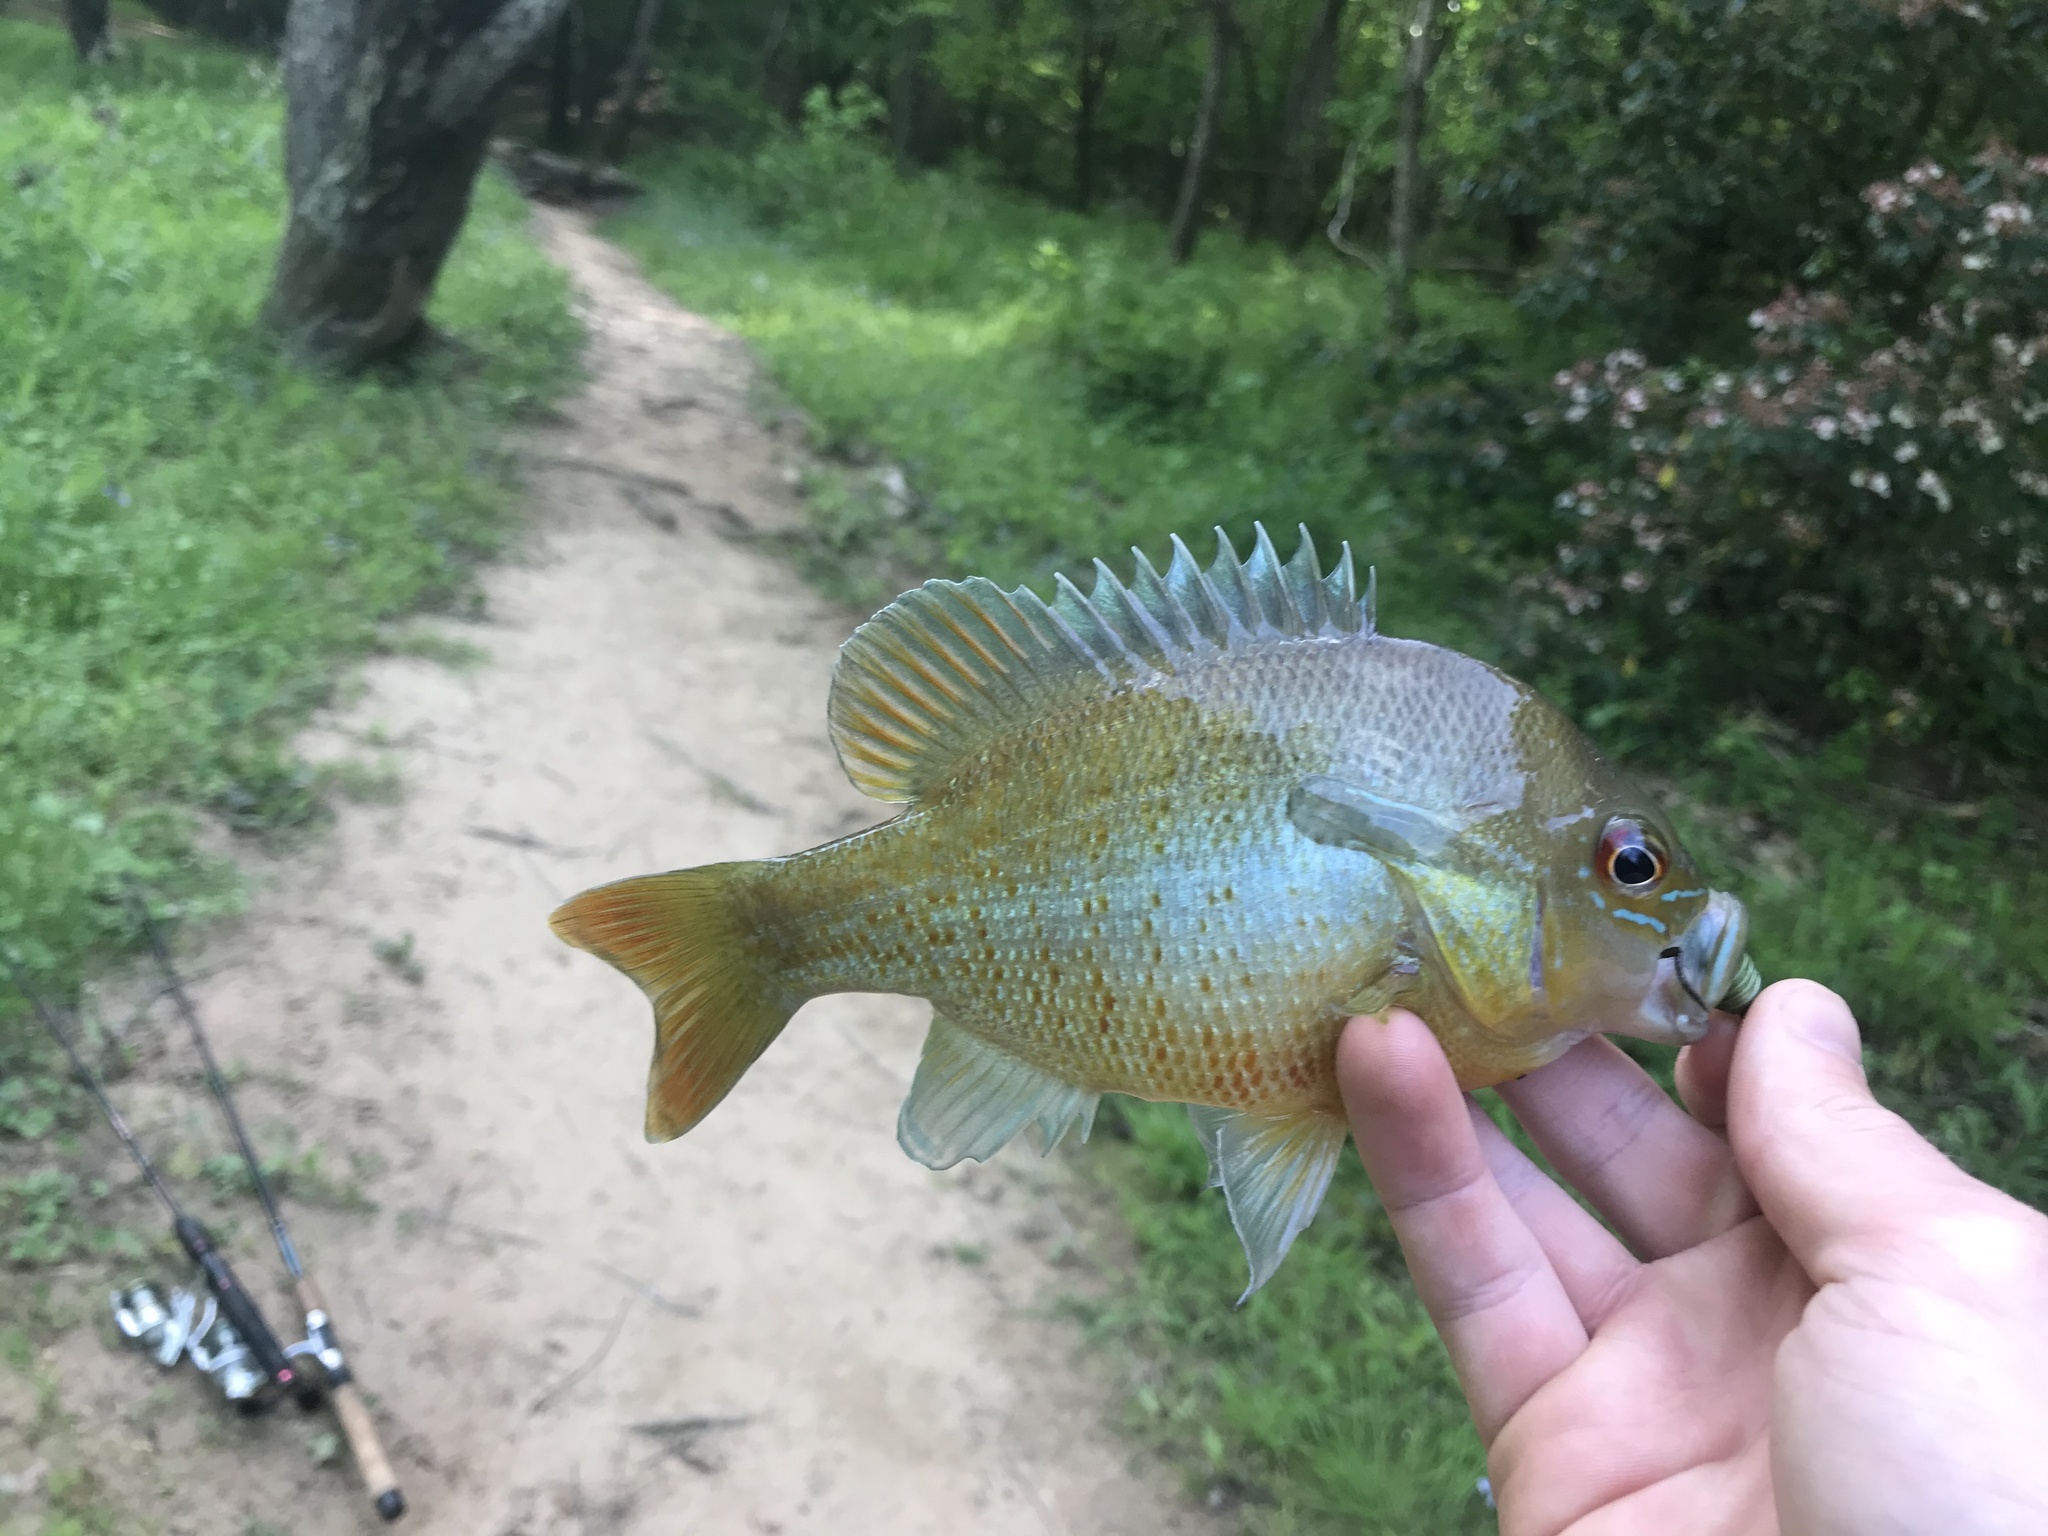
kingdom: Animalia
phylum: Chordata
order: Perciformes
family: Centrarchidae
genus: Lepomis
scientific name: Lepomis auritus
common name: Redbreast sunfish
